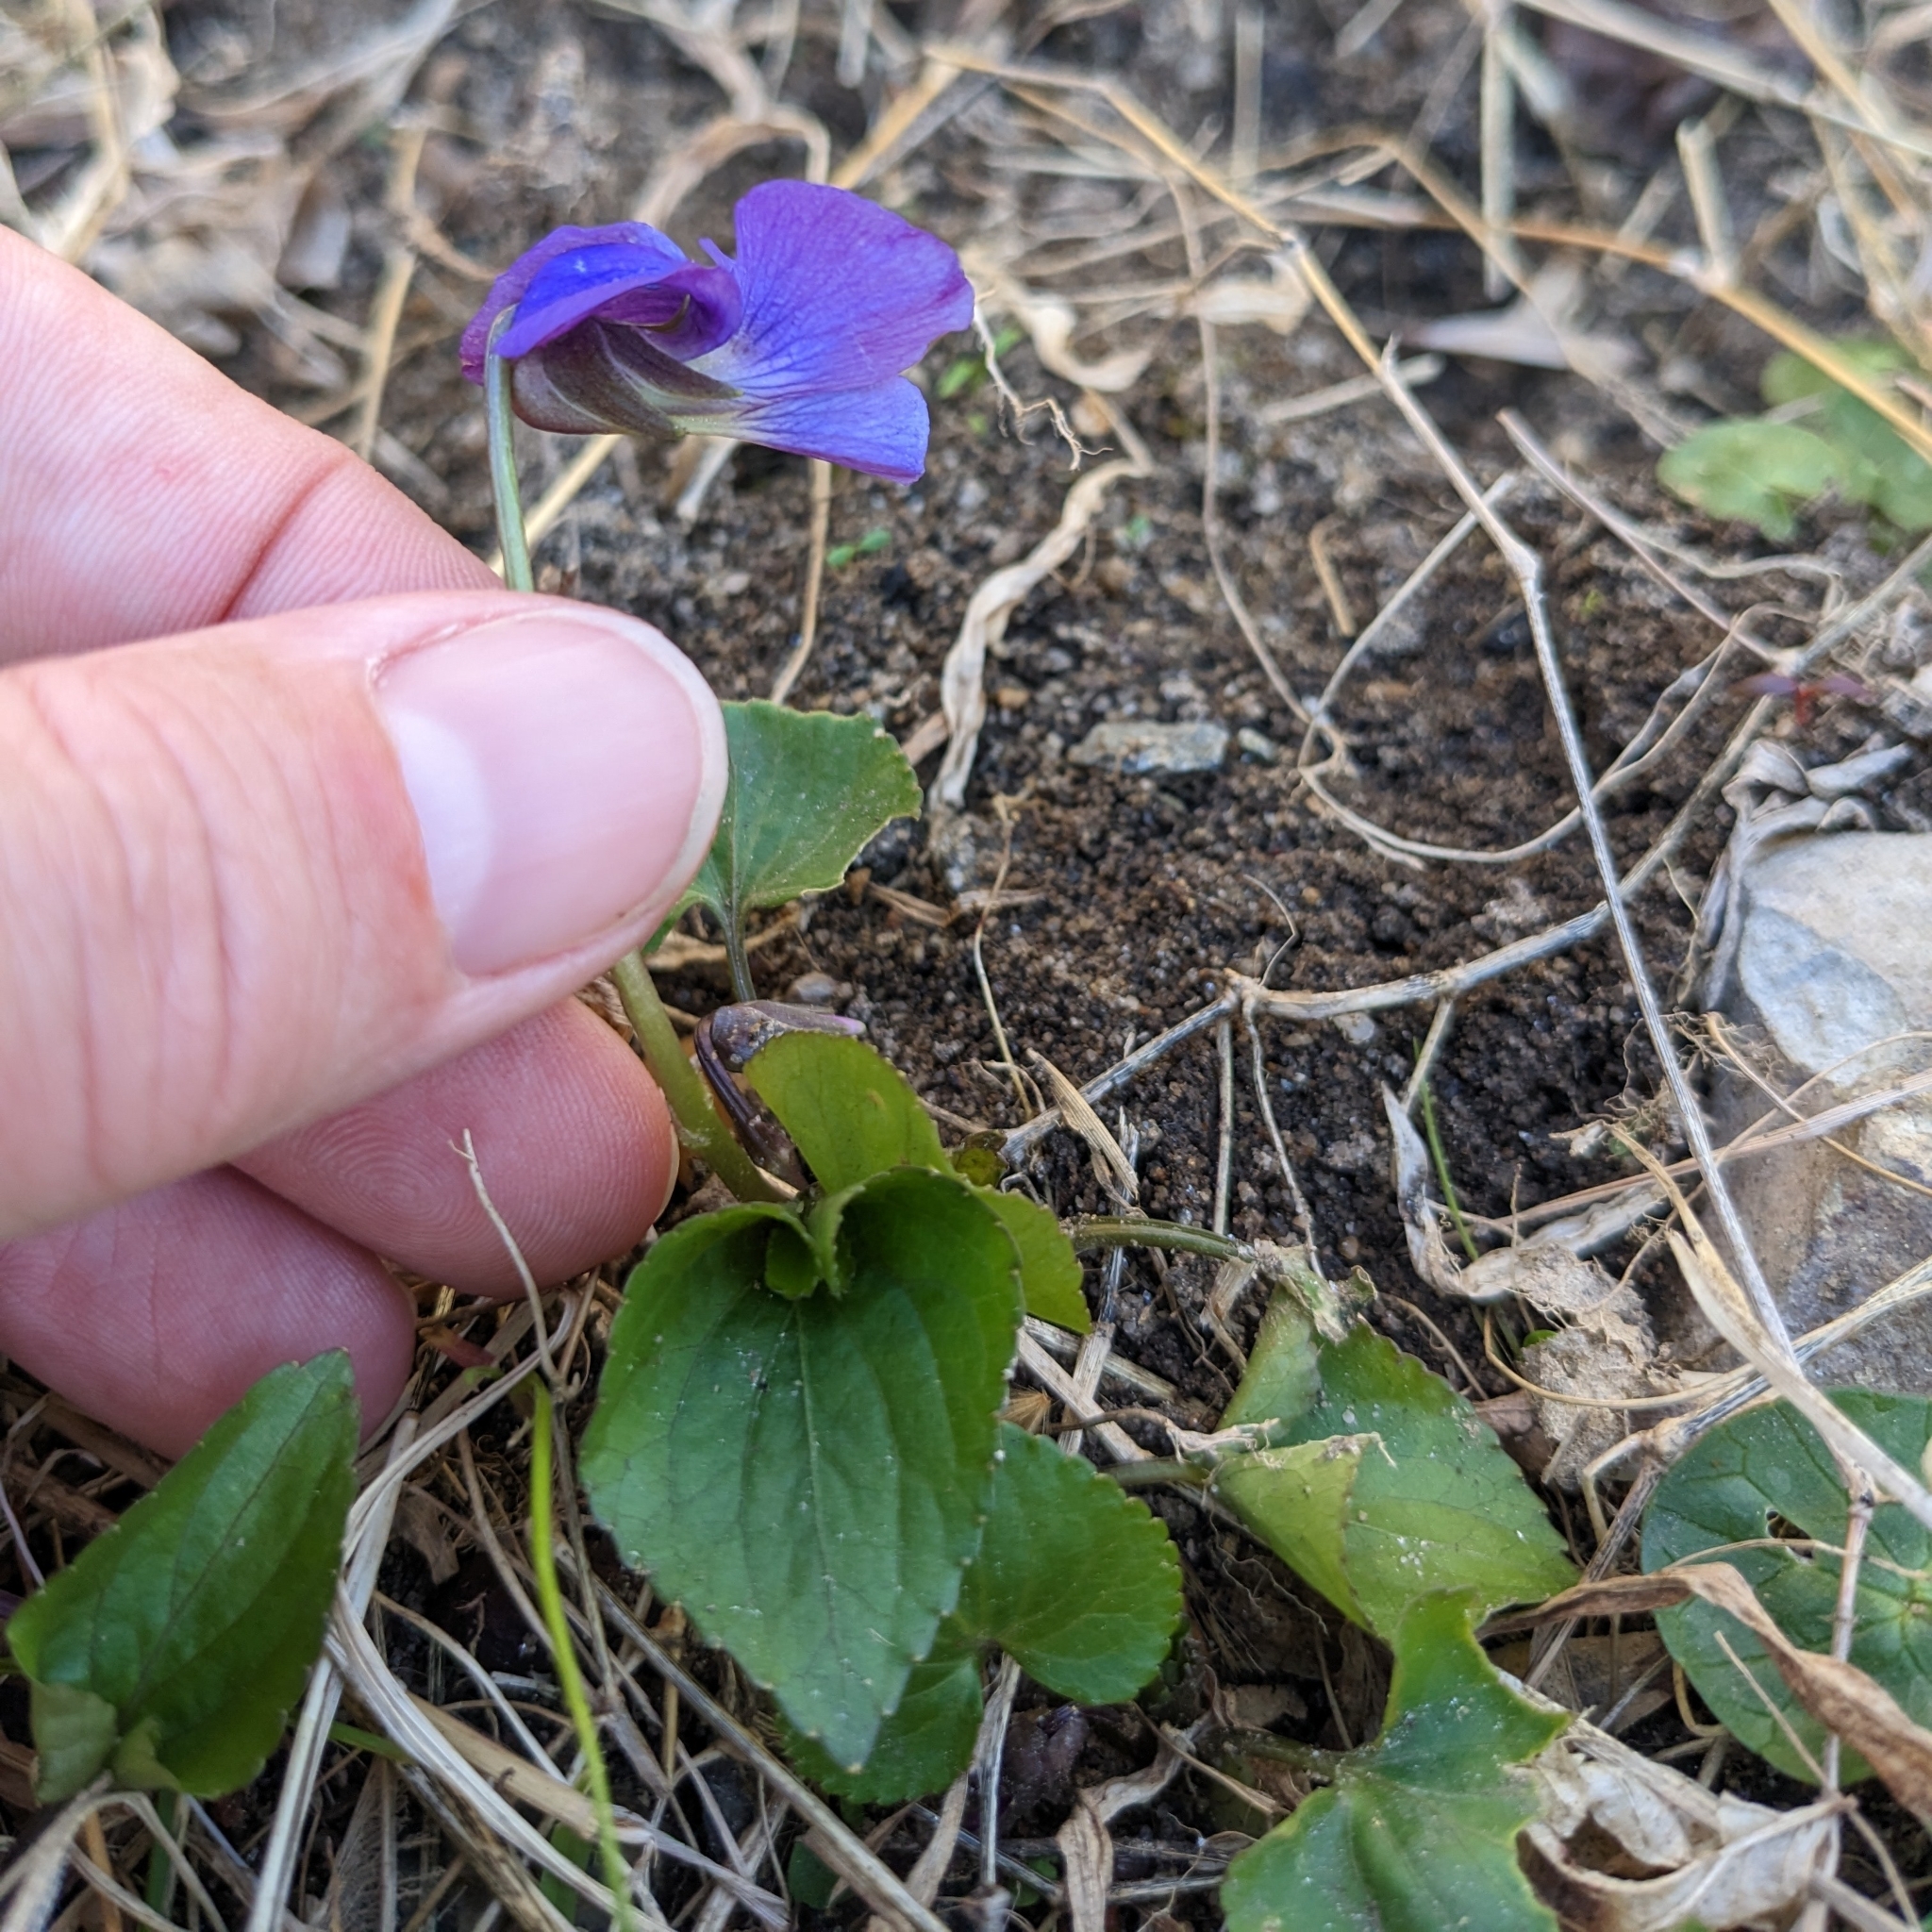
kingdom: Plantae
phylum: Tracheophyta
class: Magnoliopsida
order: Malpighiales
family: Violaceae
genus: Viola
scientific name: Viola sororia
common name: Dooryard violet
